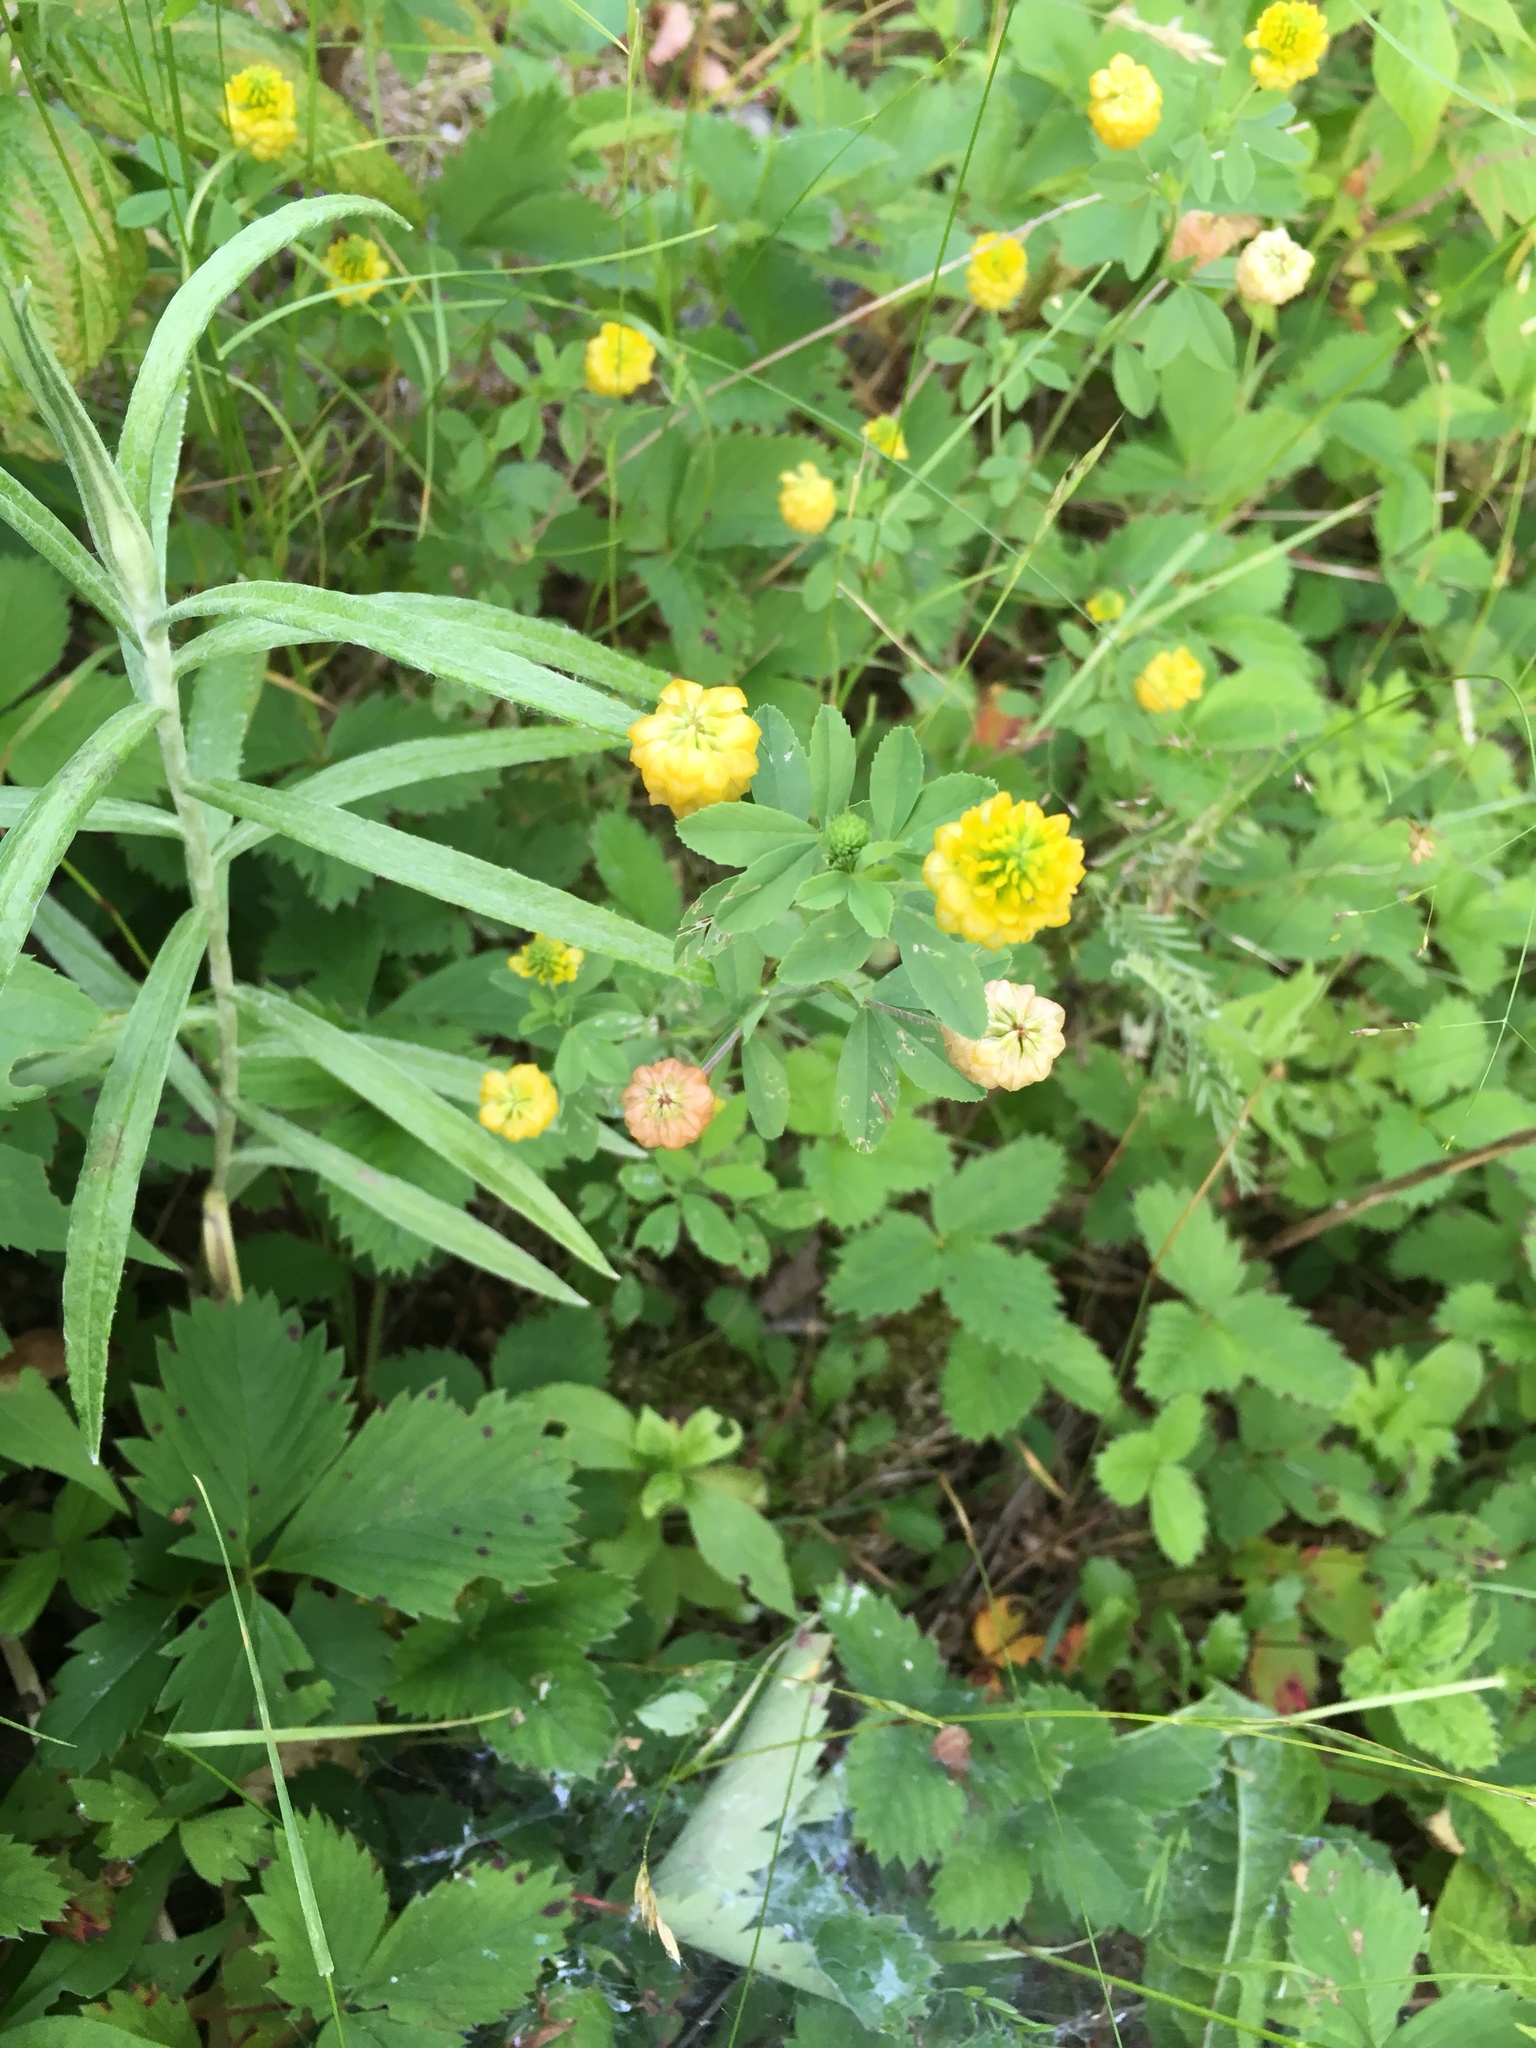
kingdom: Plantae
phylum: Tracheophyta
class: Magnoliopsida
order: Fabales
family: Fabaceae
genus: Trifolium
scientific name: Trifolium aureum
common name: Golden clover
